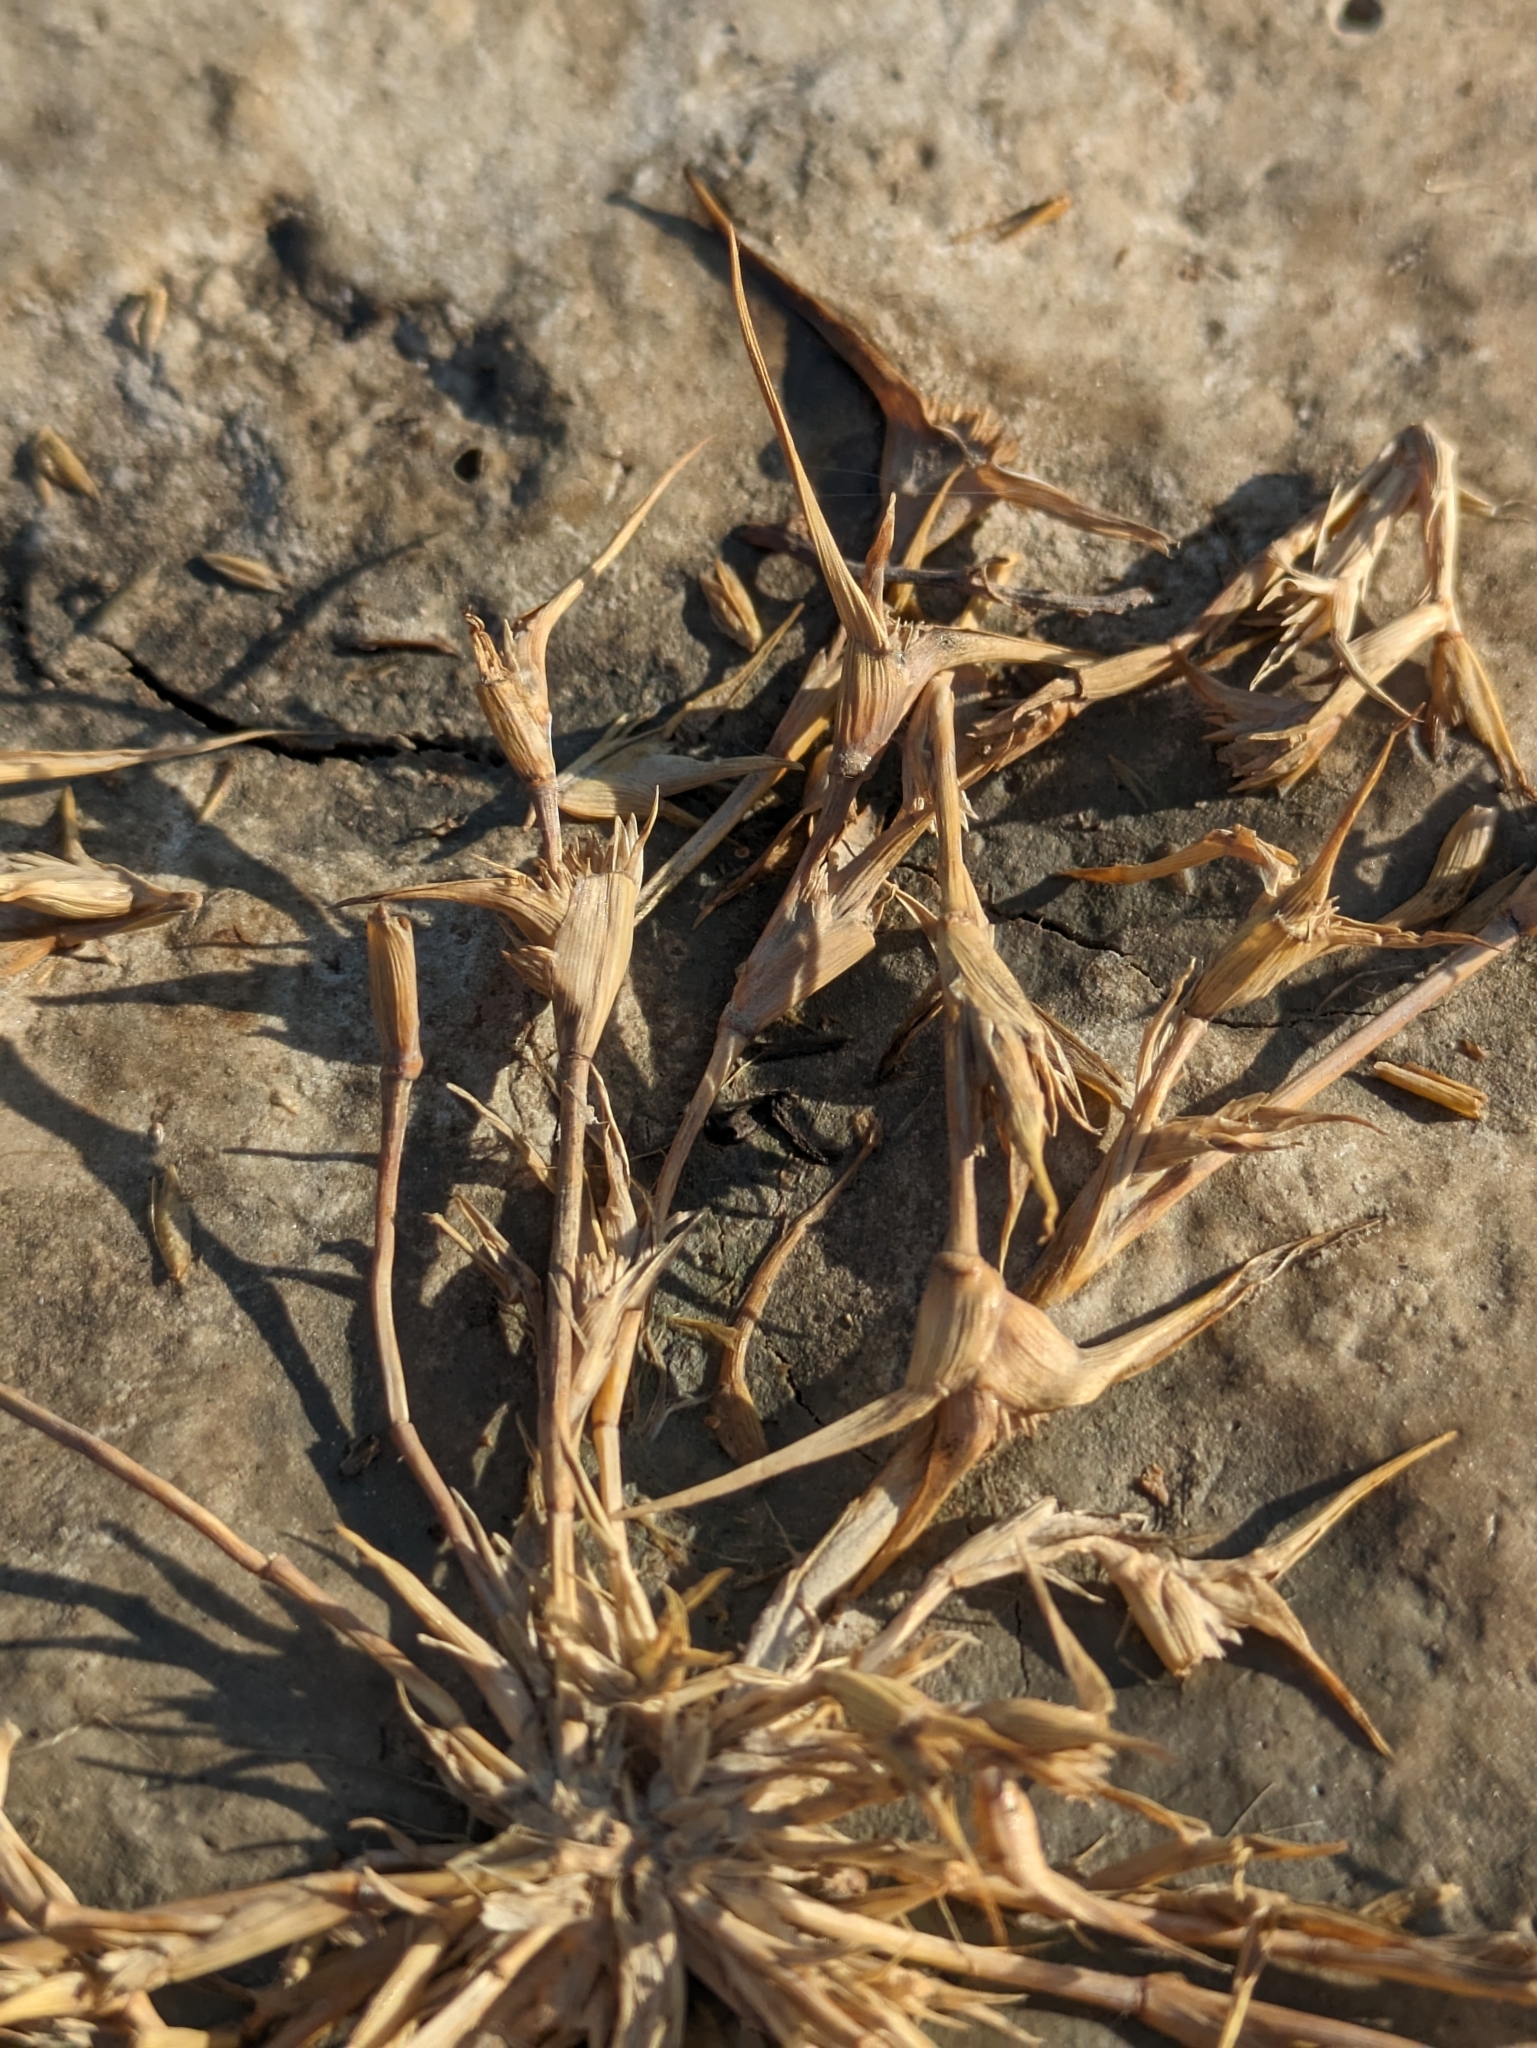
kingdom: Plantae
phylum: Tracheophyta
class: Liliopsida
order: Poales
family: Poaceae
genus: Sporobolus
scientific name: Sporobolus aculeatus
